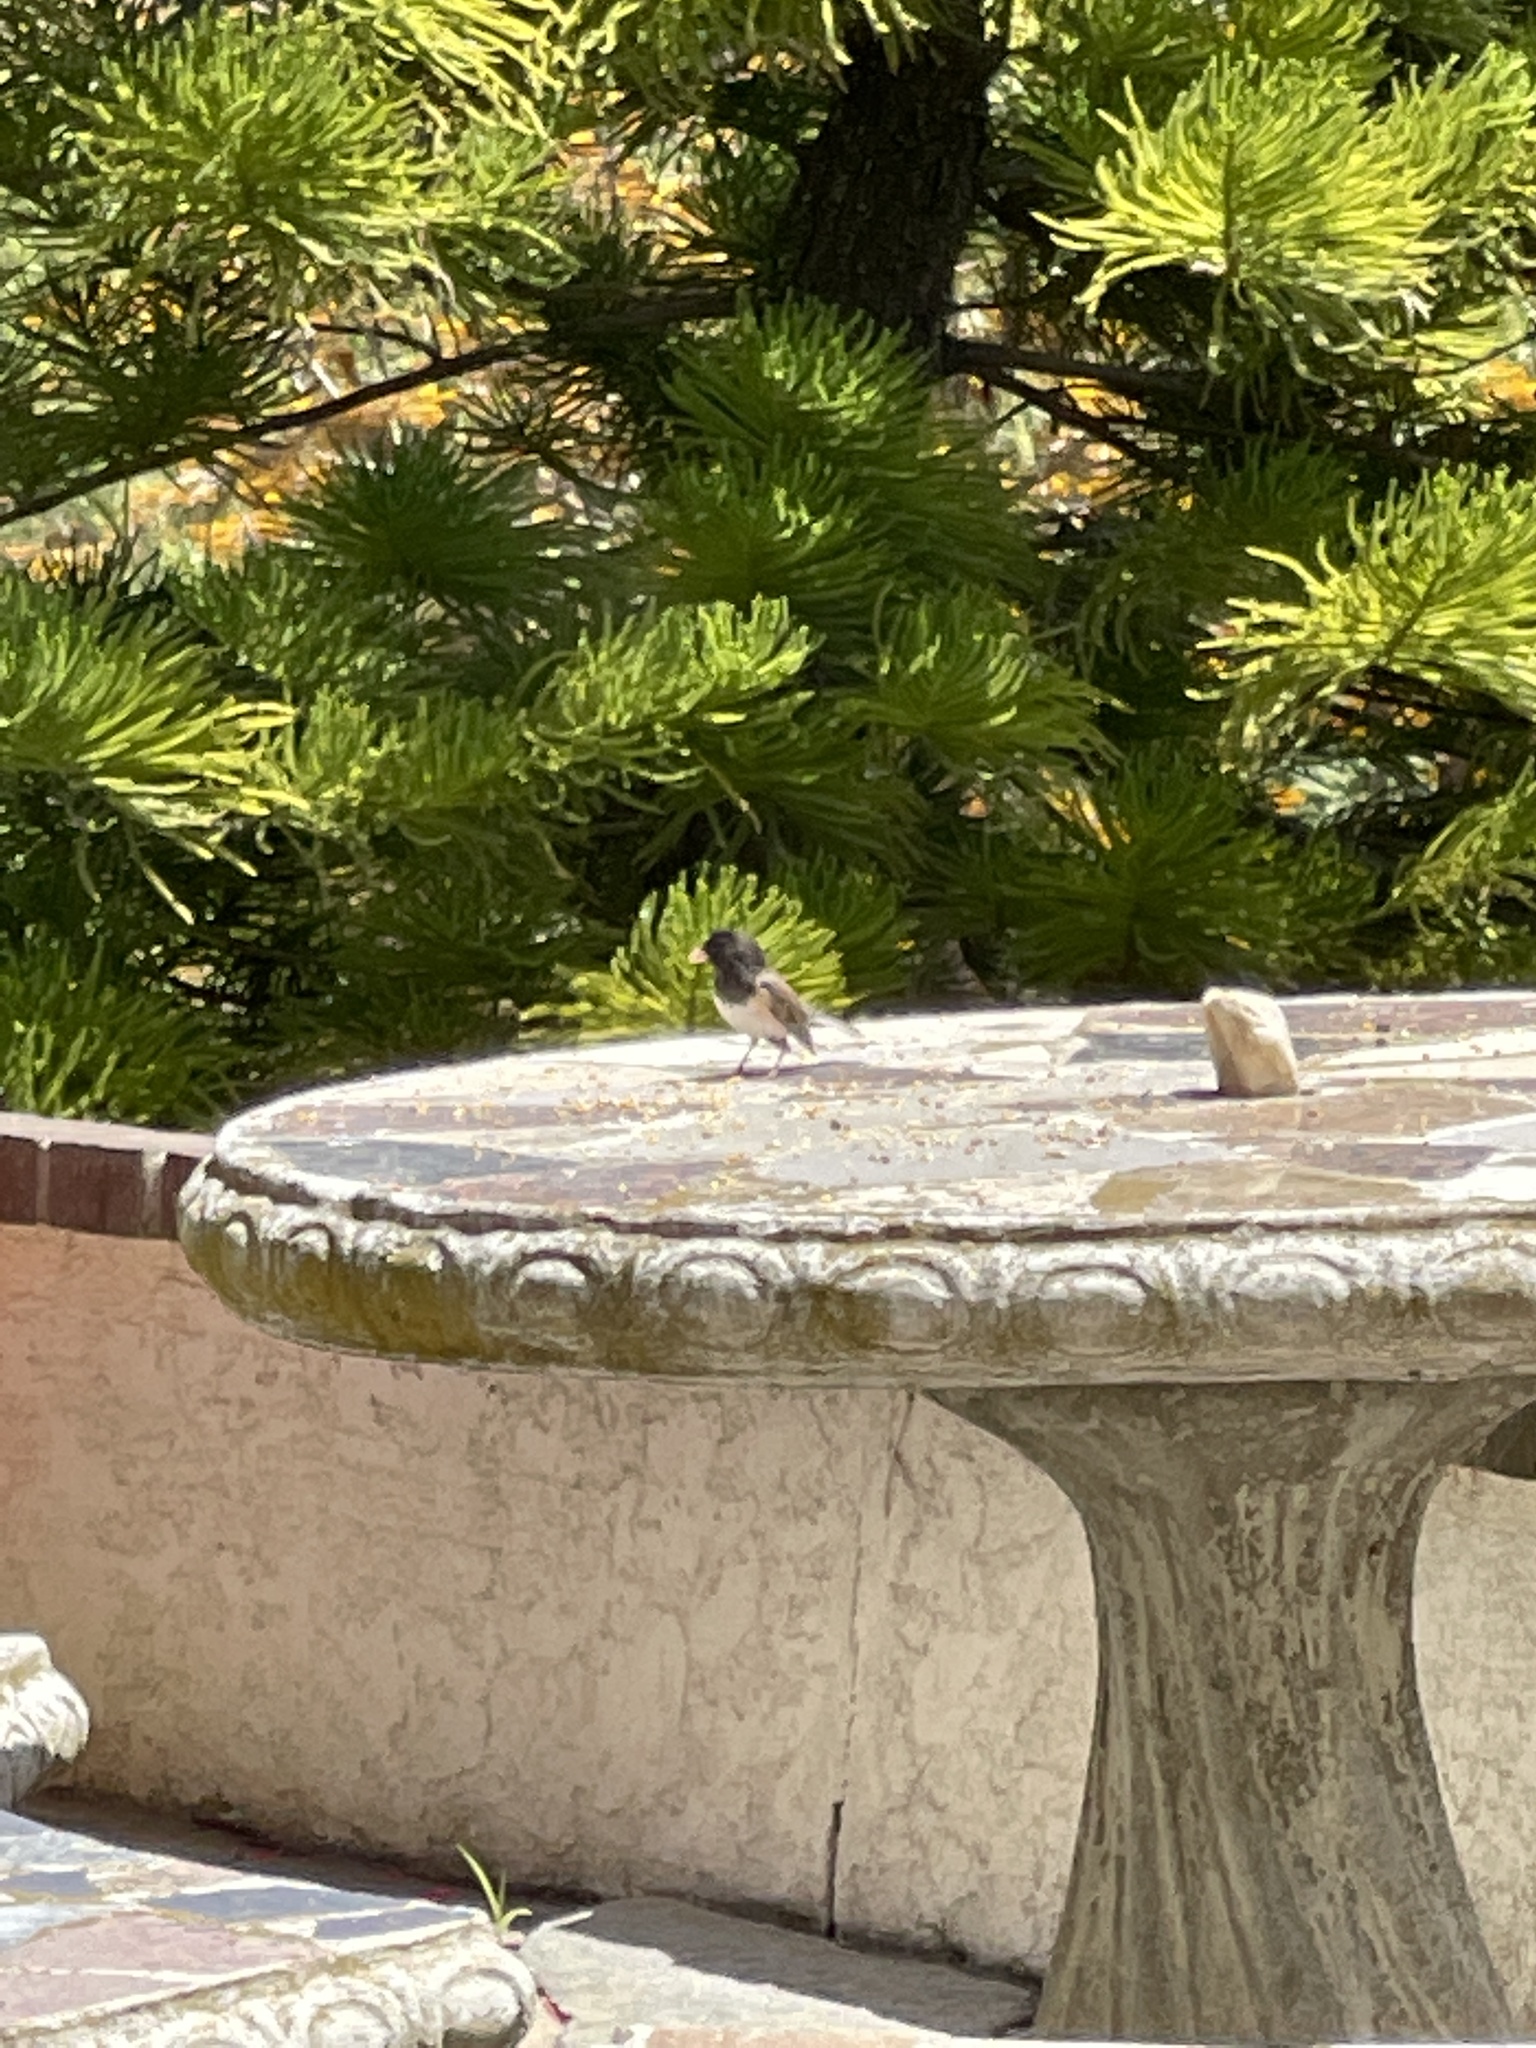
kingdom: Animalia
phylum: Chordata
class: Aves
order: Passeriformes
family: Passerellidae
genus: Junco
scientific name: Junco hyemalis
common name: Dark-eyed junco
